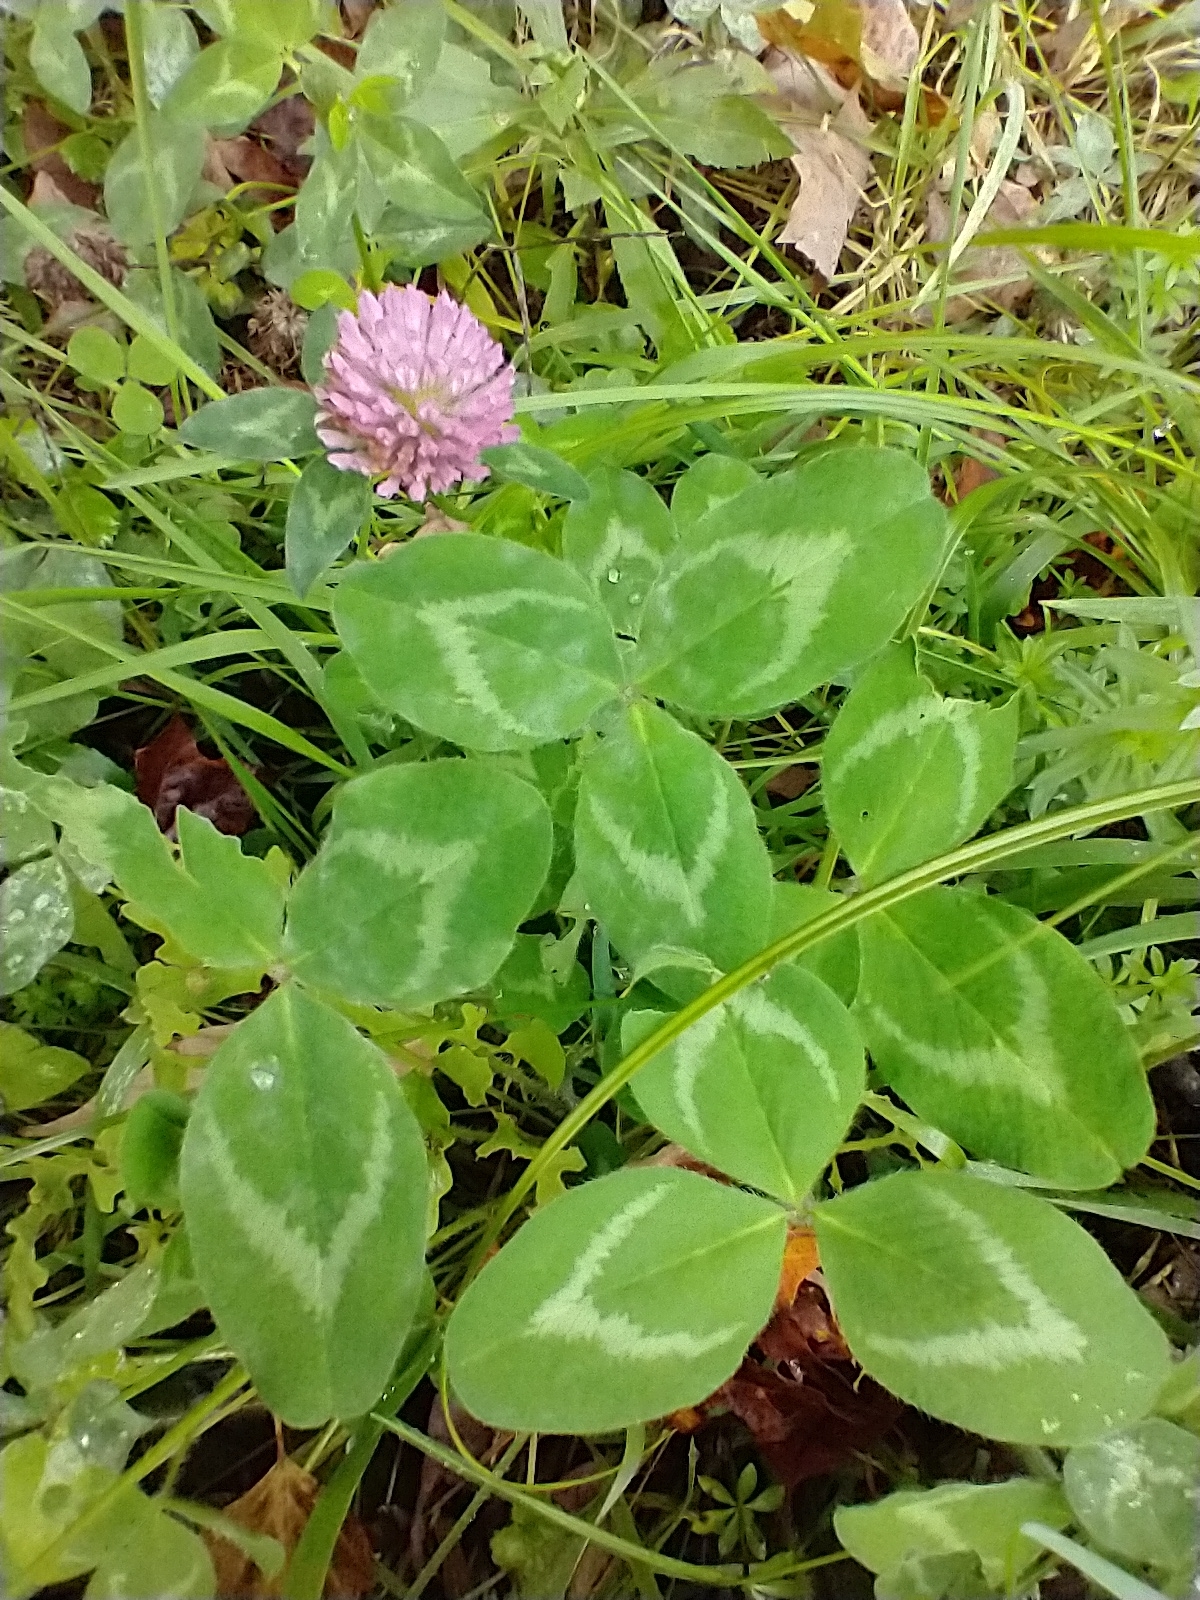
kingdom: Plantae
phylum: Tracheophyta
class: Magnoliopsida
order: Fabales
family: Fabaceae
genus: Trifolium
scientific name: Trifolium pratense
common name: Red clover
